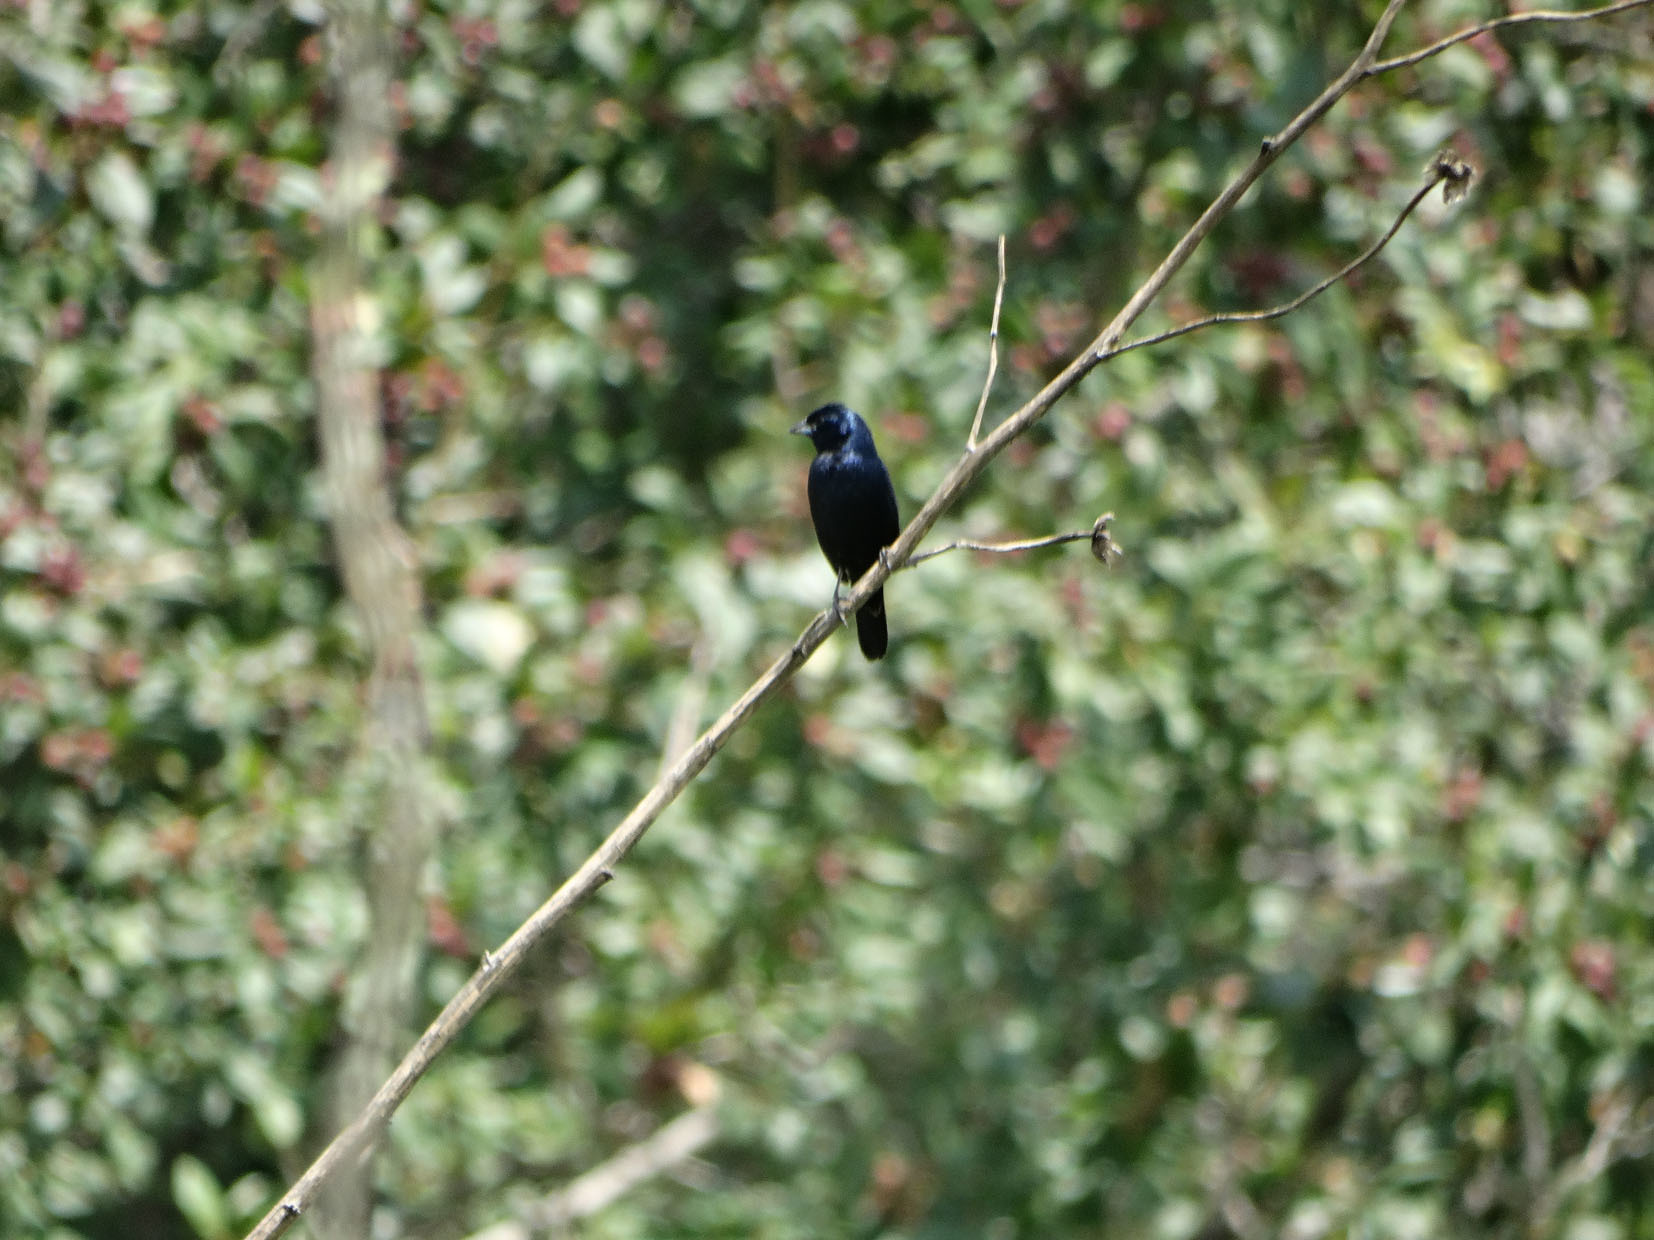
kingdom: Animalia
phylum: Chordata
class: Aves
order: Passeriformes
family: Thraupidae
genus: Volatinia
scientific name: Volatinia jacarina
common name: Blue-black grassquit
